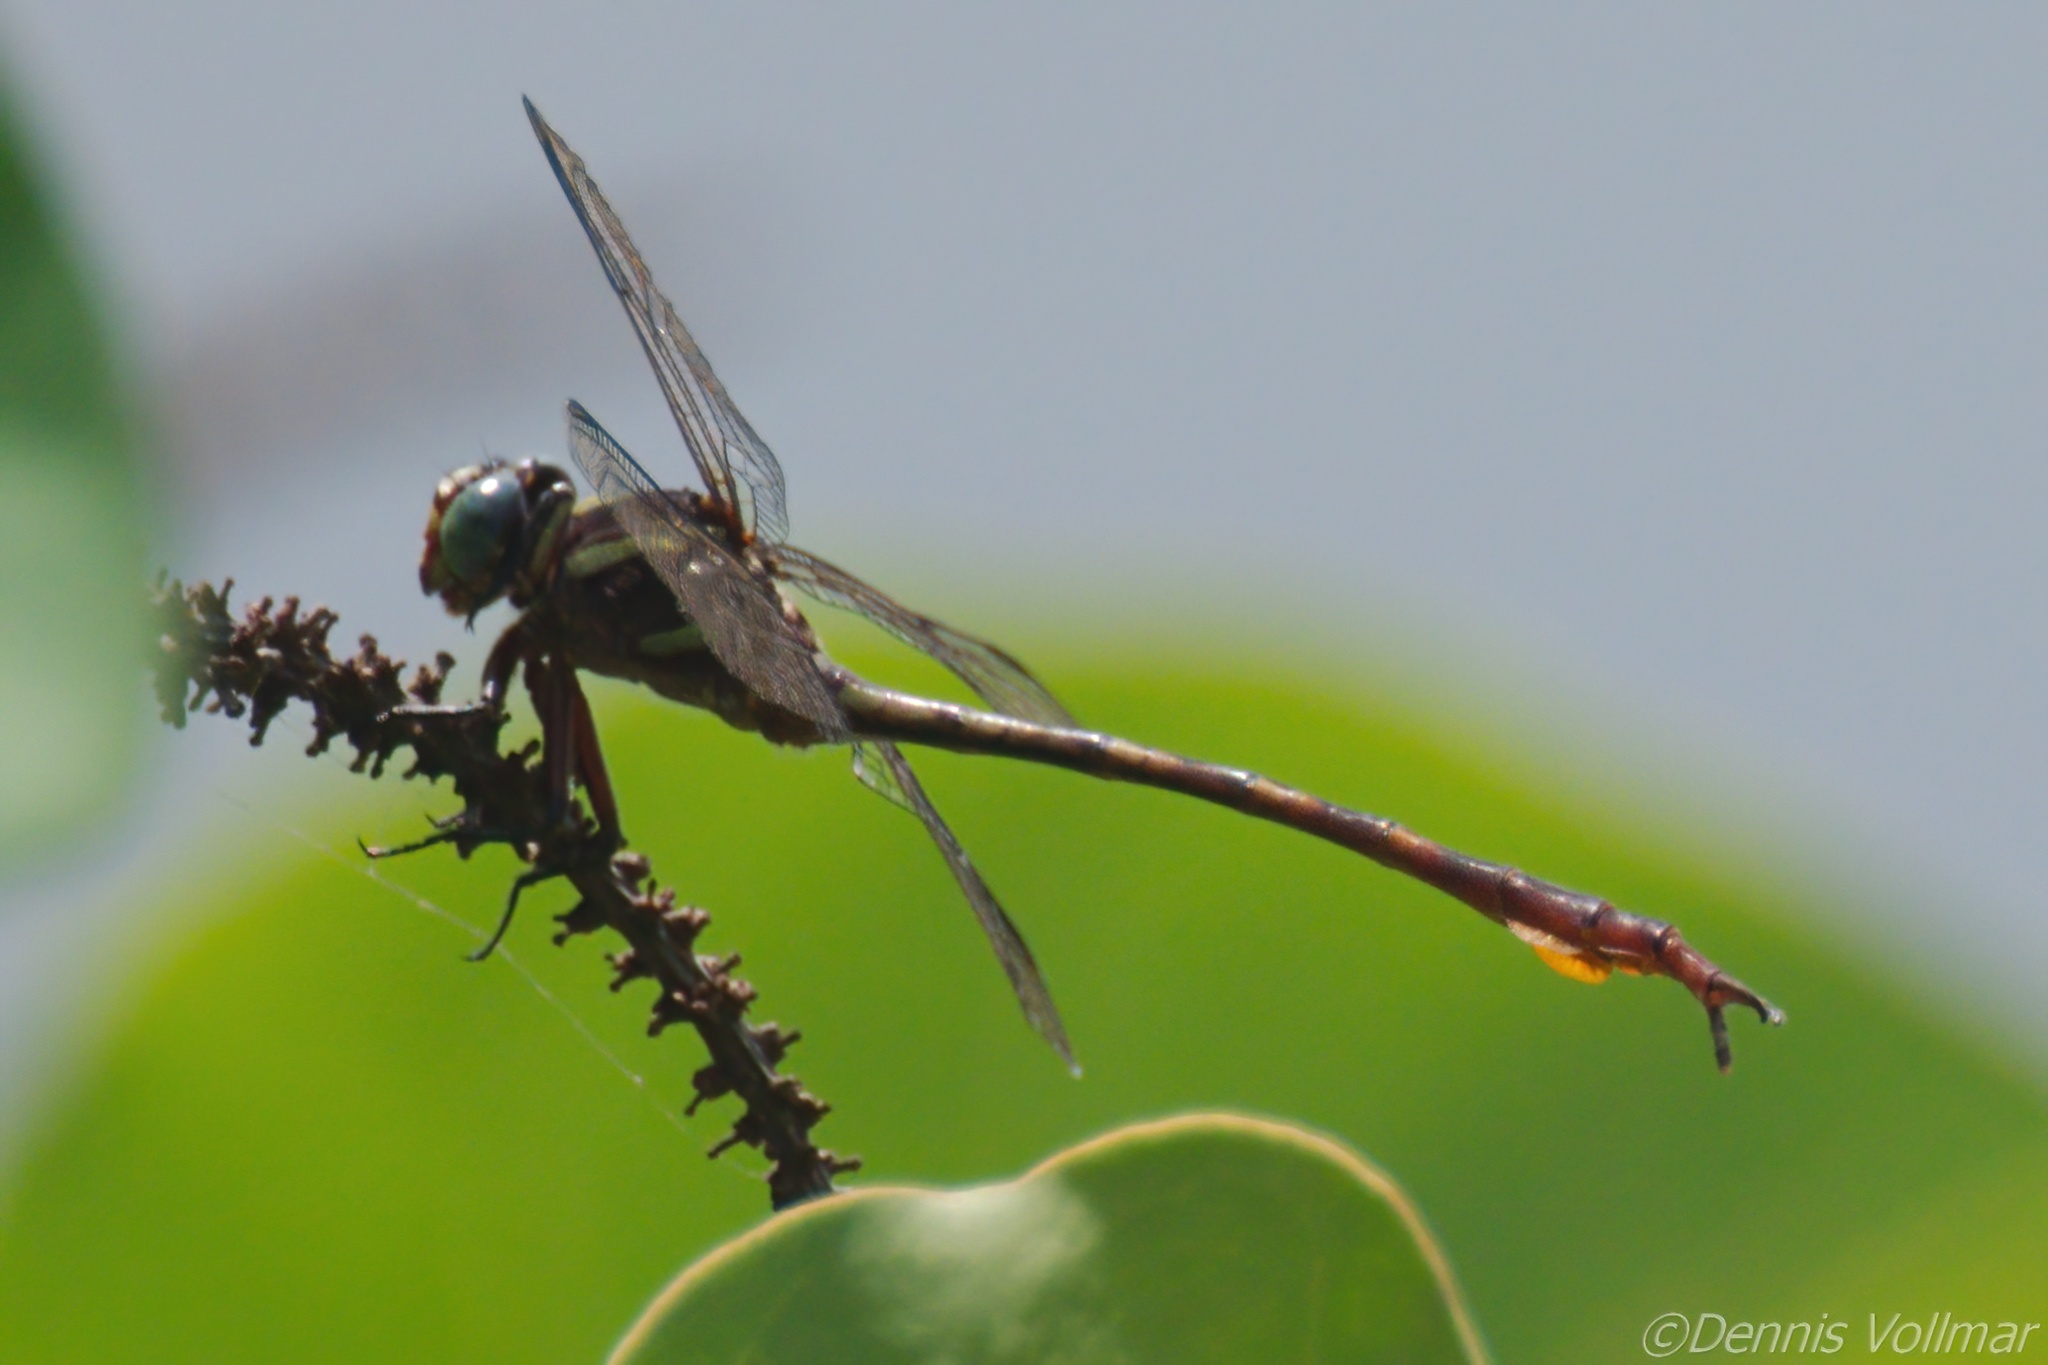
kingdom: Animalia
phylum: Arthropoda
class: Insecta
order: Odonata
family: Gomphidae
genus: Aphylla
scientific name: Aphylla williamsoni
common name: Two-striped forceptail
